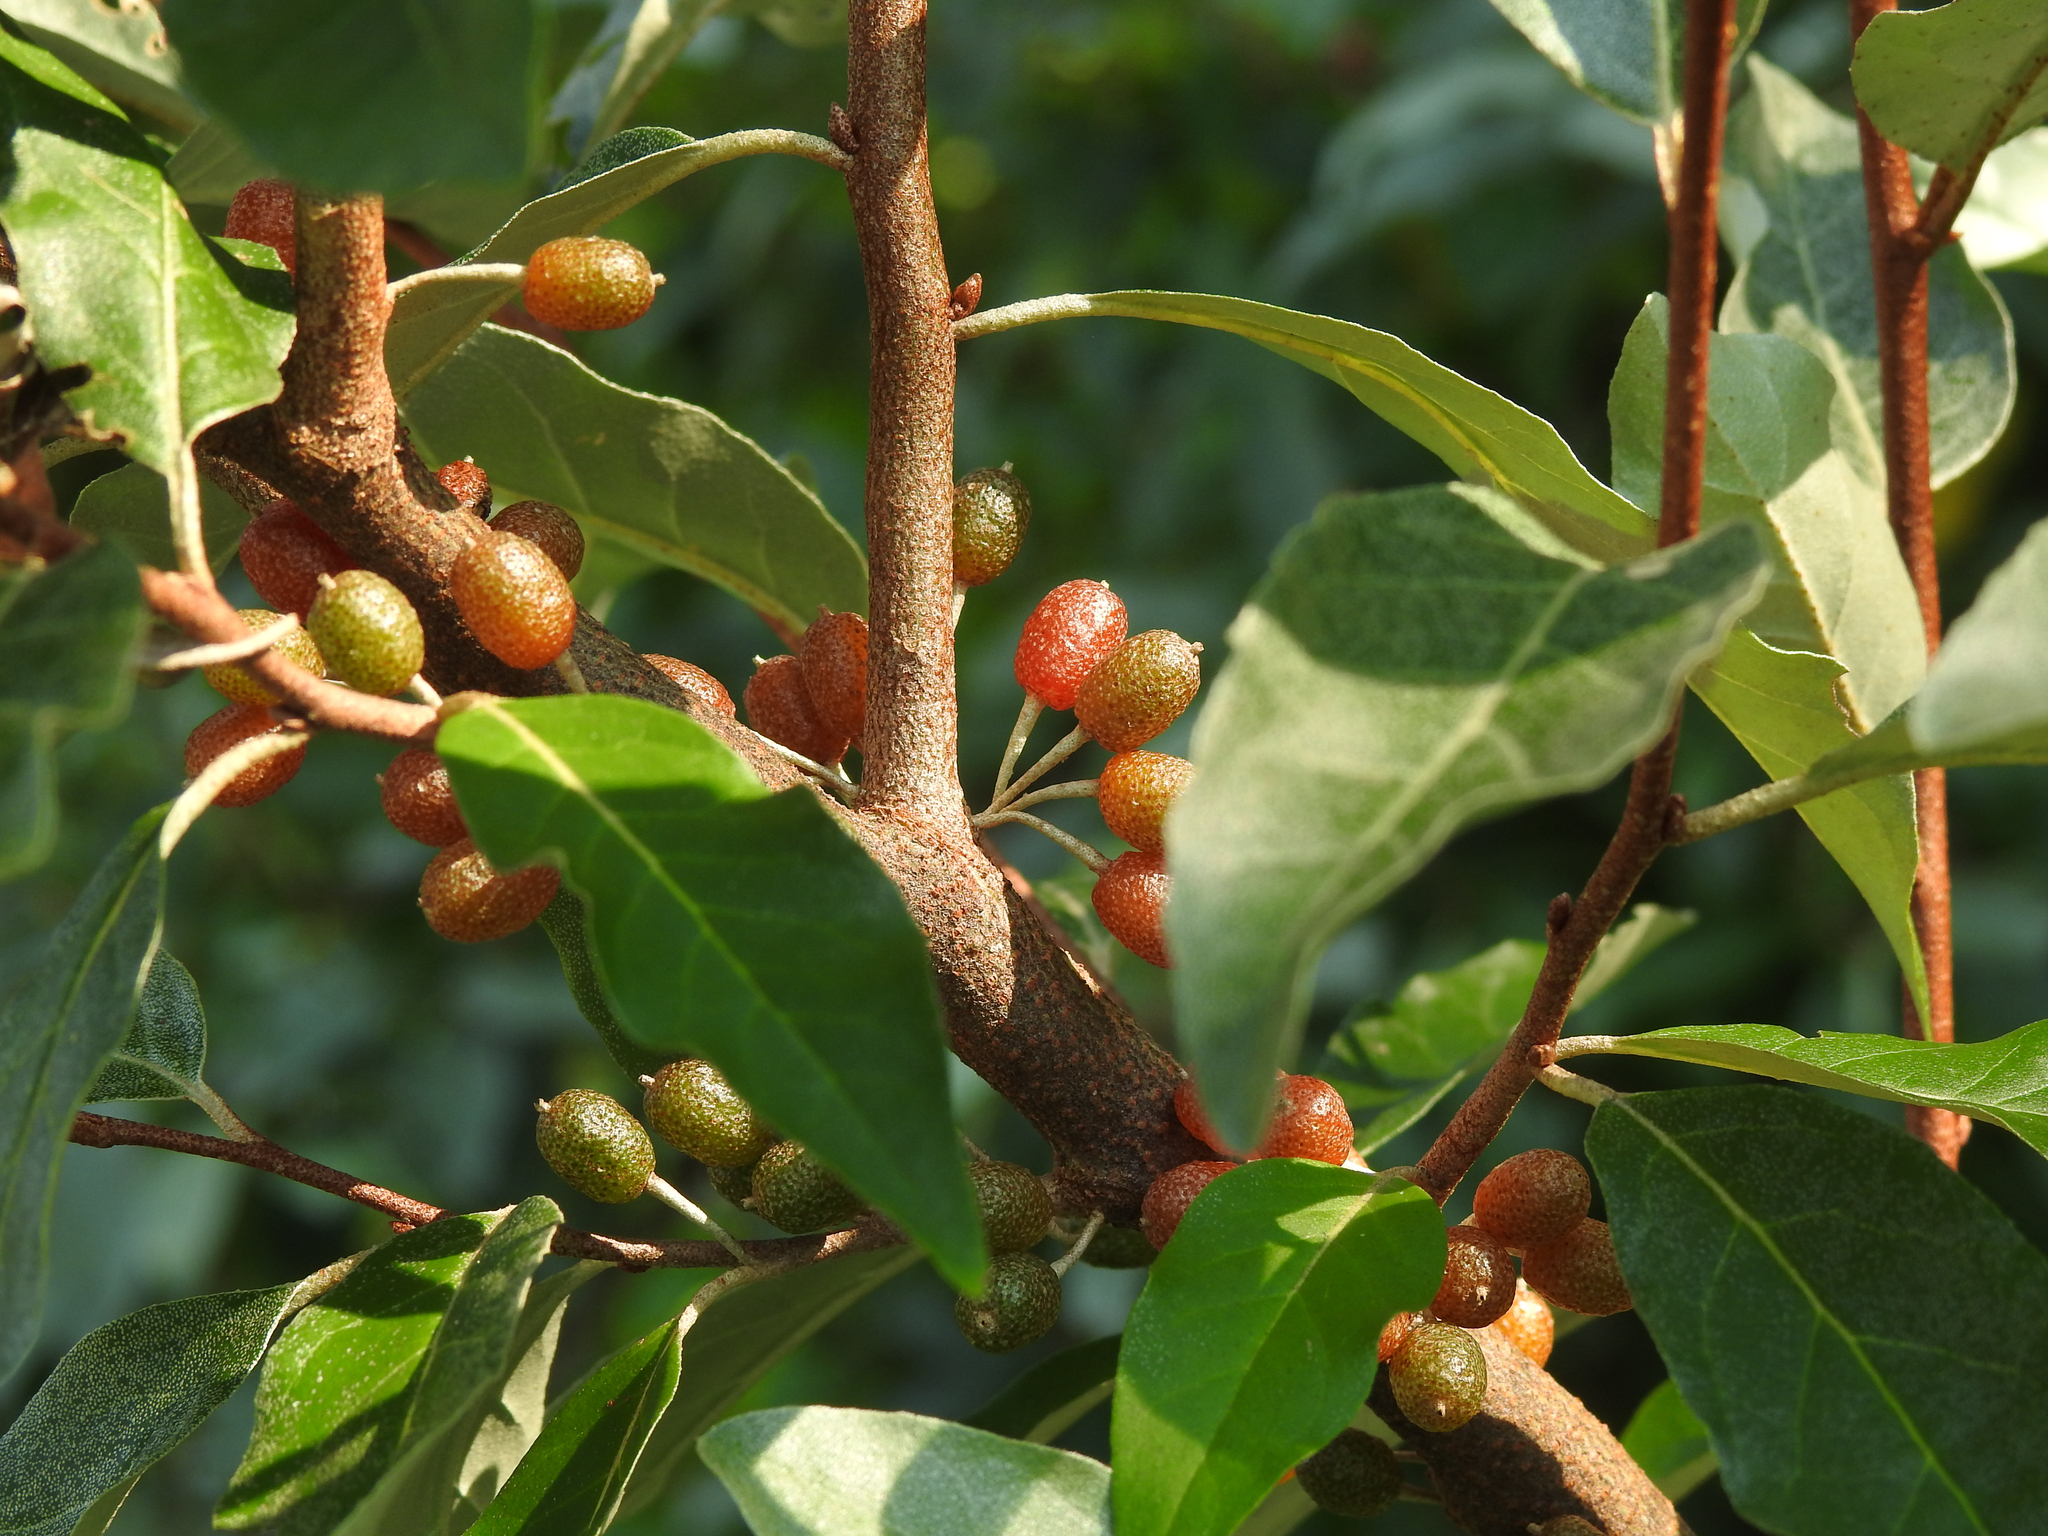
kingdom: Plantae
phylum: Tracheophyta
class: Magnoliopsida
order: Rosales
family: Elaeagnaceae
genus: Elaeagnus
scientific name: Elaeagnus umbellata
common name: Autumn olive
